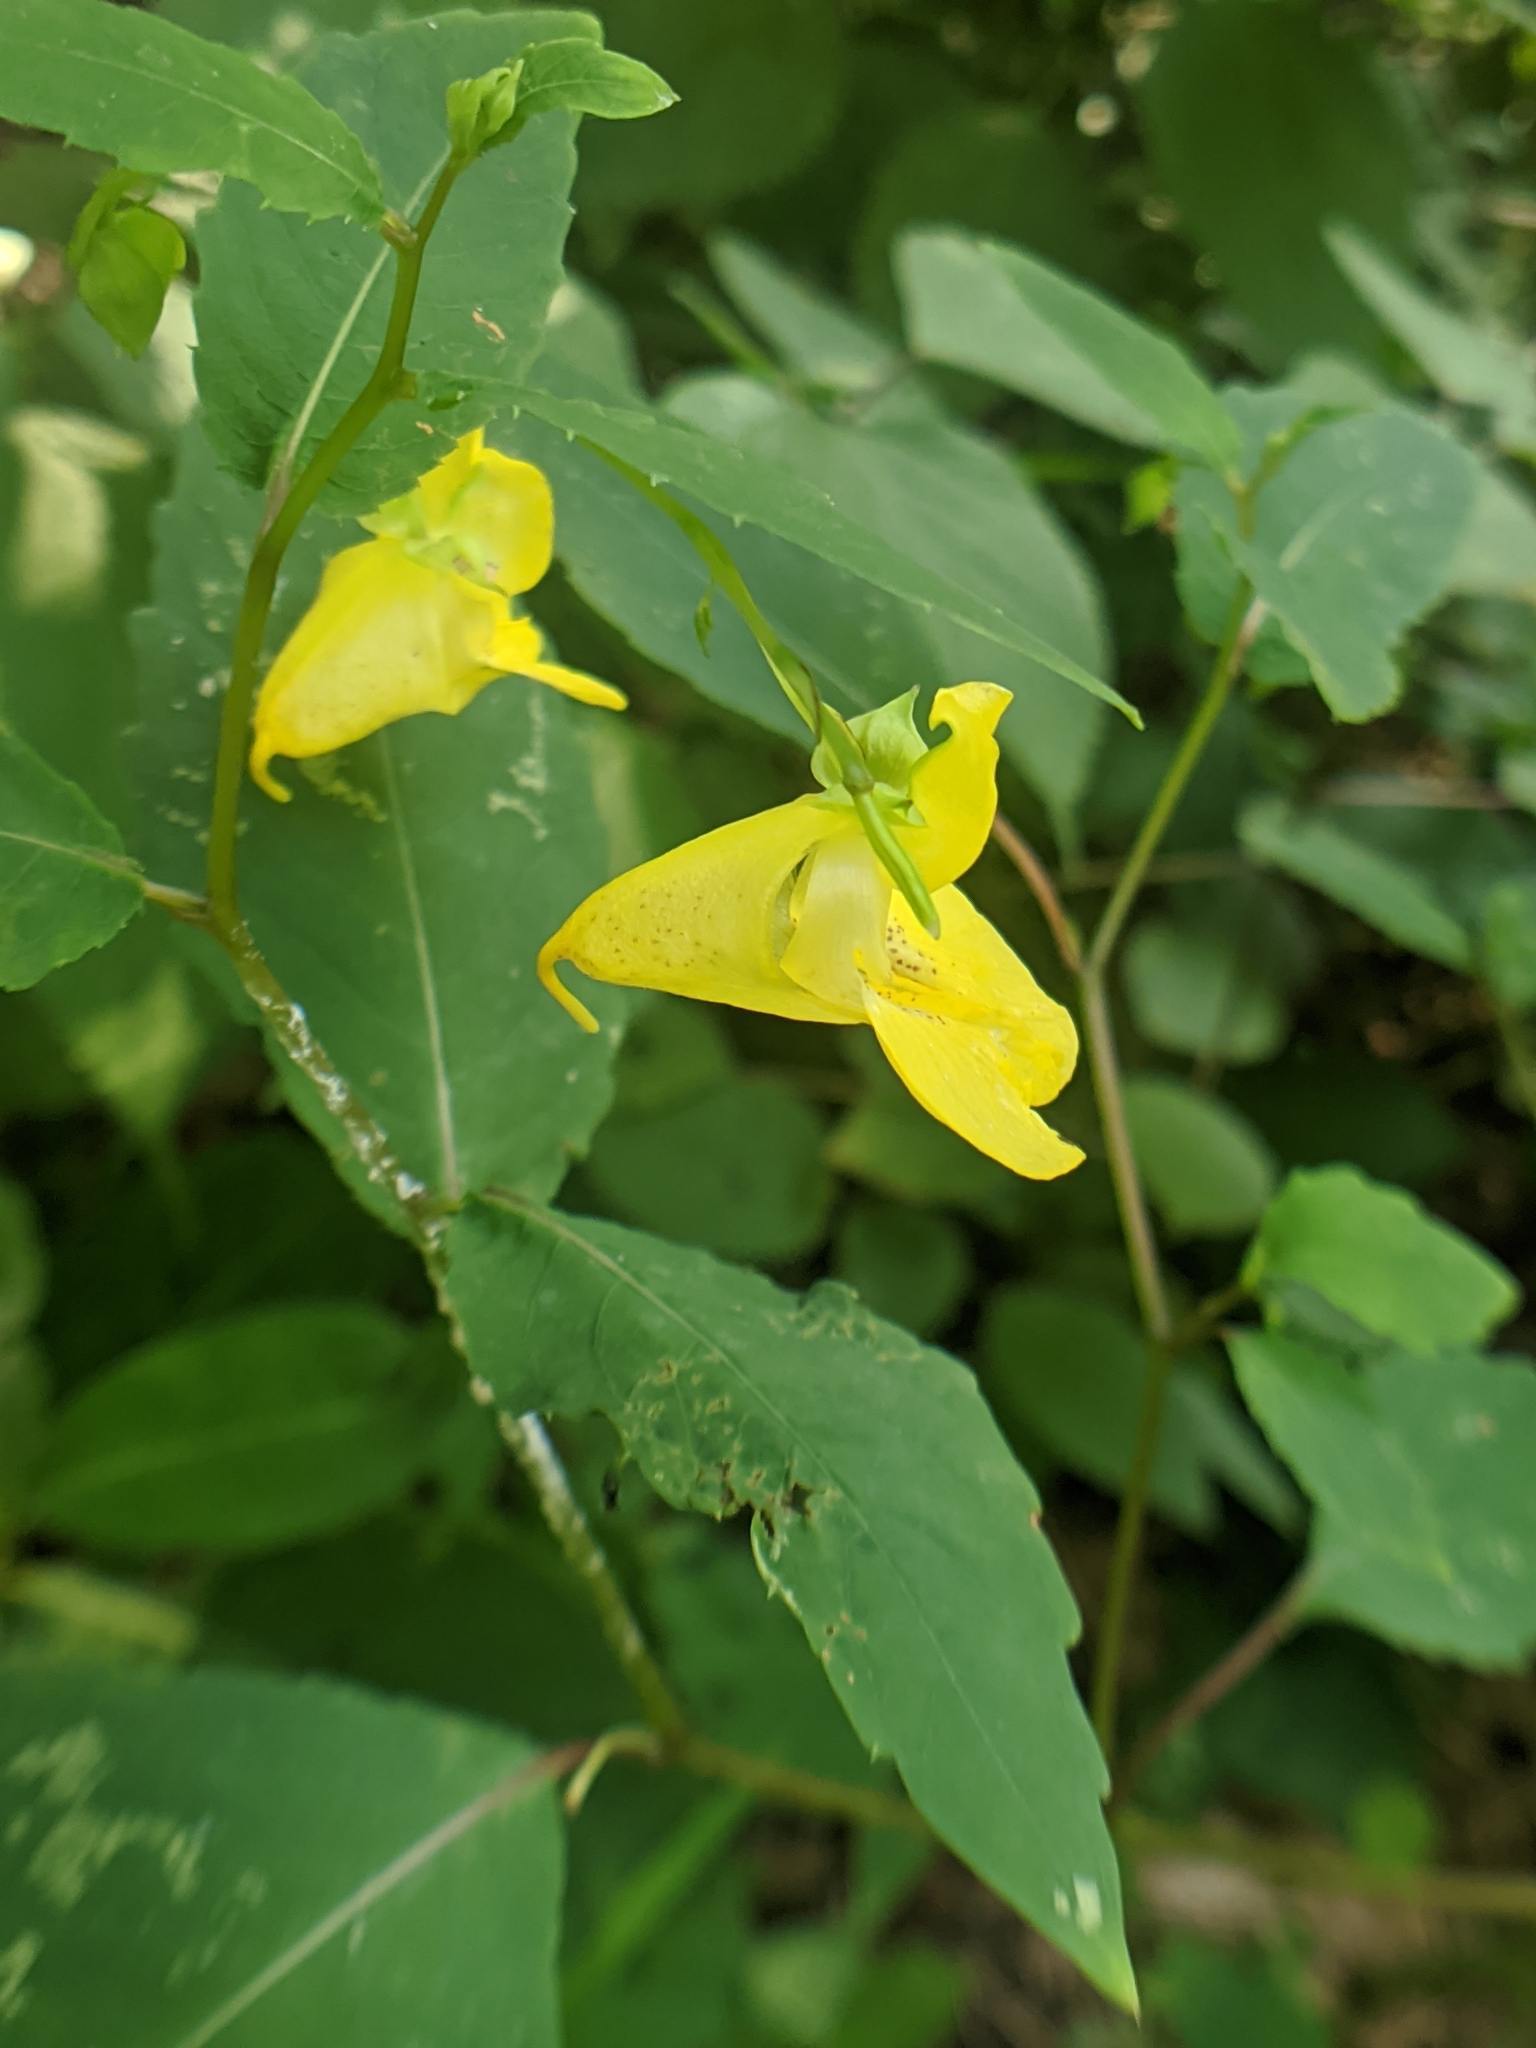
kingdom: Plantae
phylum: Tracheophyta
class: Magnoliopsida
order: Ericales
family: Balsaminaceae
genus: Impatiens
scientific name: Impatiens pallida
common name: Pale snapweed
